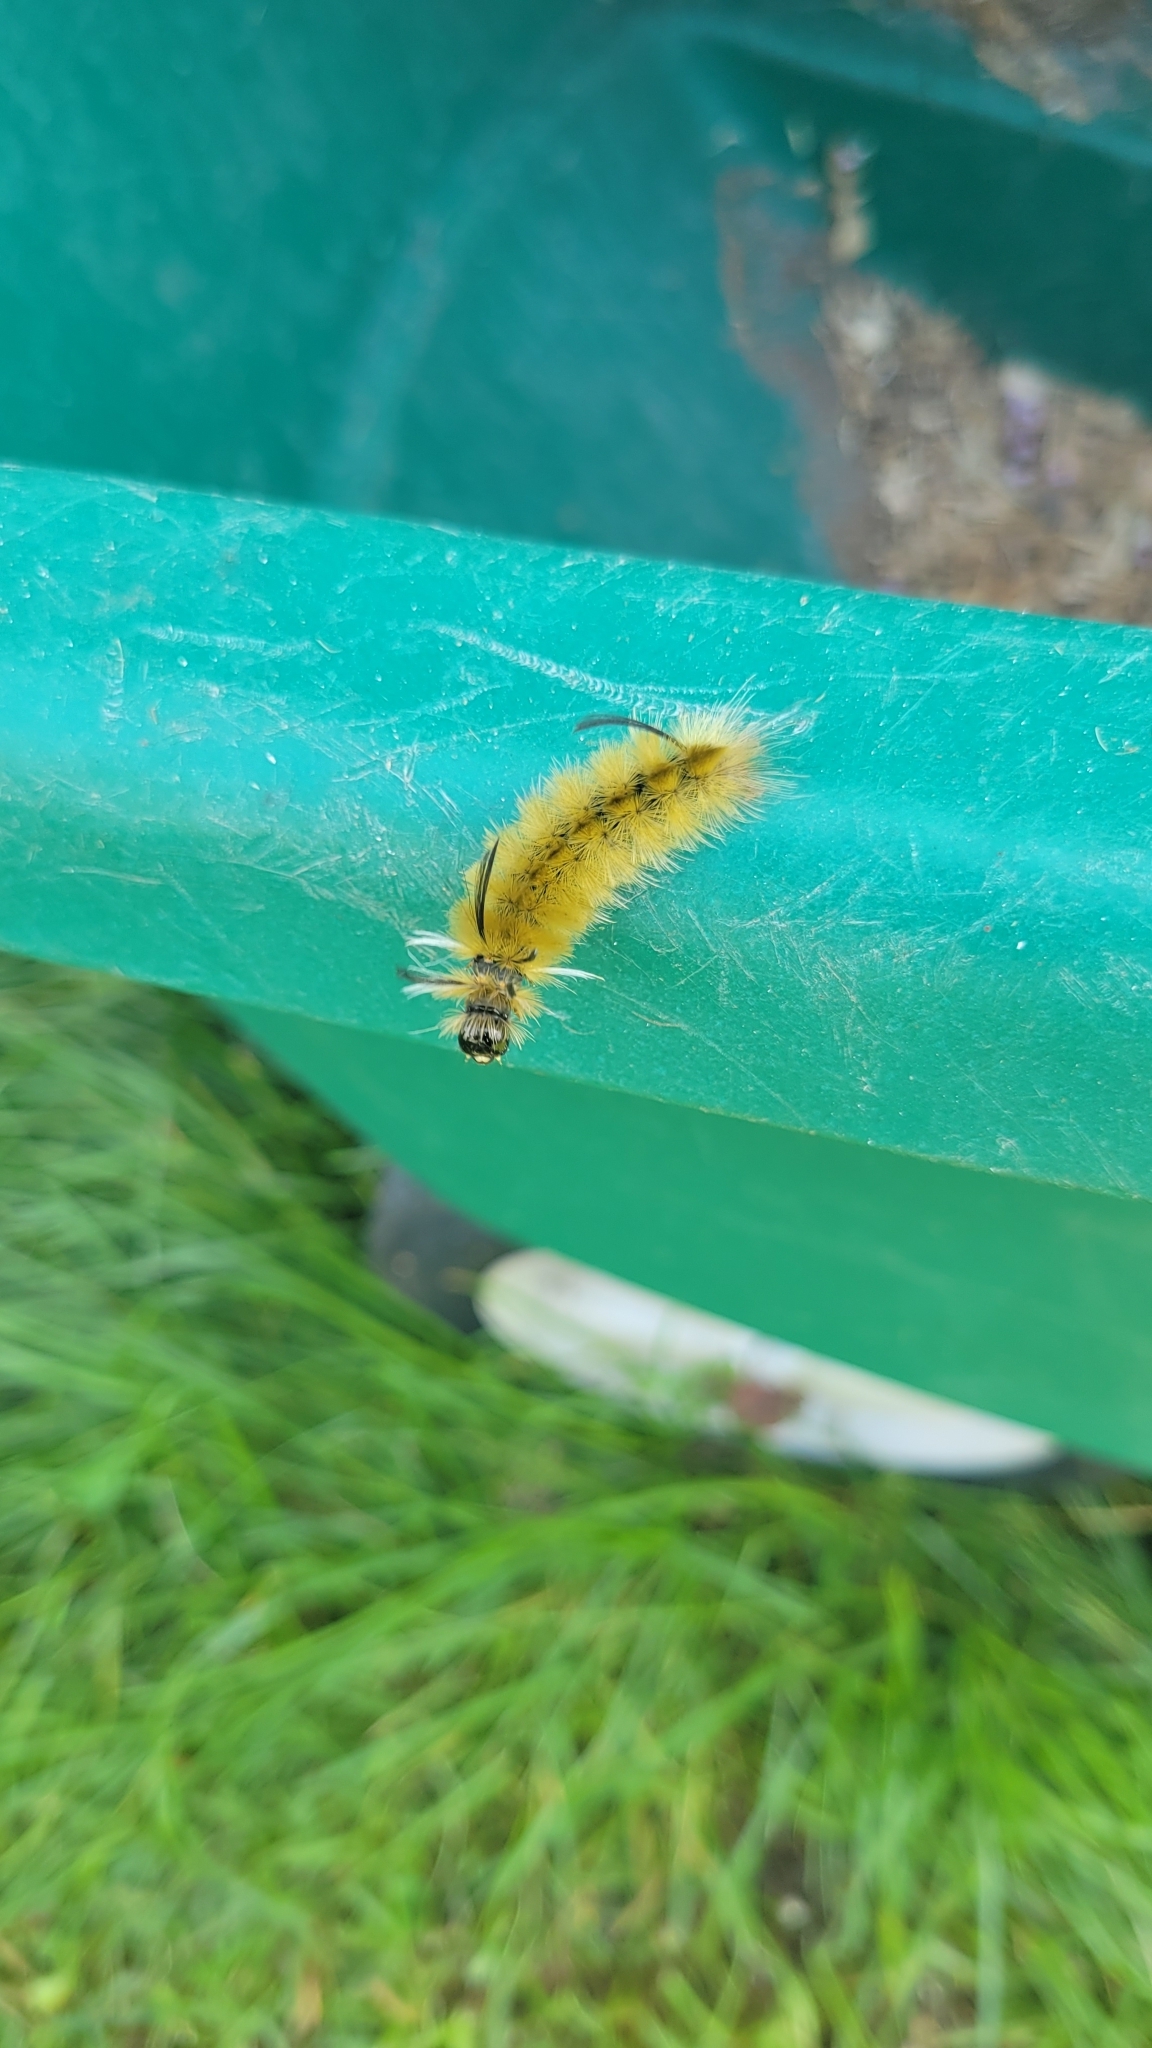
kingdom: Animalia
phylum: Arthropoda
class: Insecta
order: Lepidoptera
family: Erebidae
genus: Halysidota
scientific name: Halysidota tessellaris
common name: Banded tussock moth
